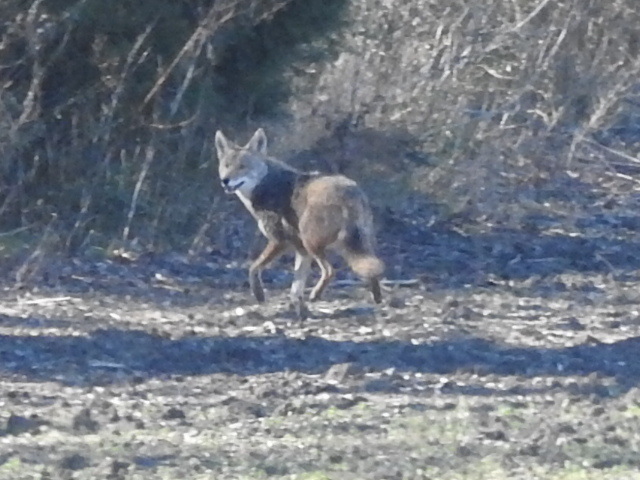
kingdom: Animalia
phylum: Chordata
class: Mammalia
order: Carnivora
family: Canidae
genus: Canis
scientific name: Canis latrans
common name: Coyote
